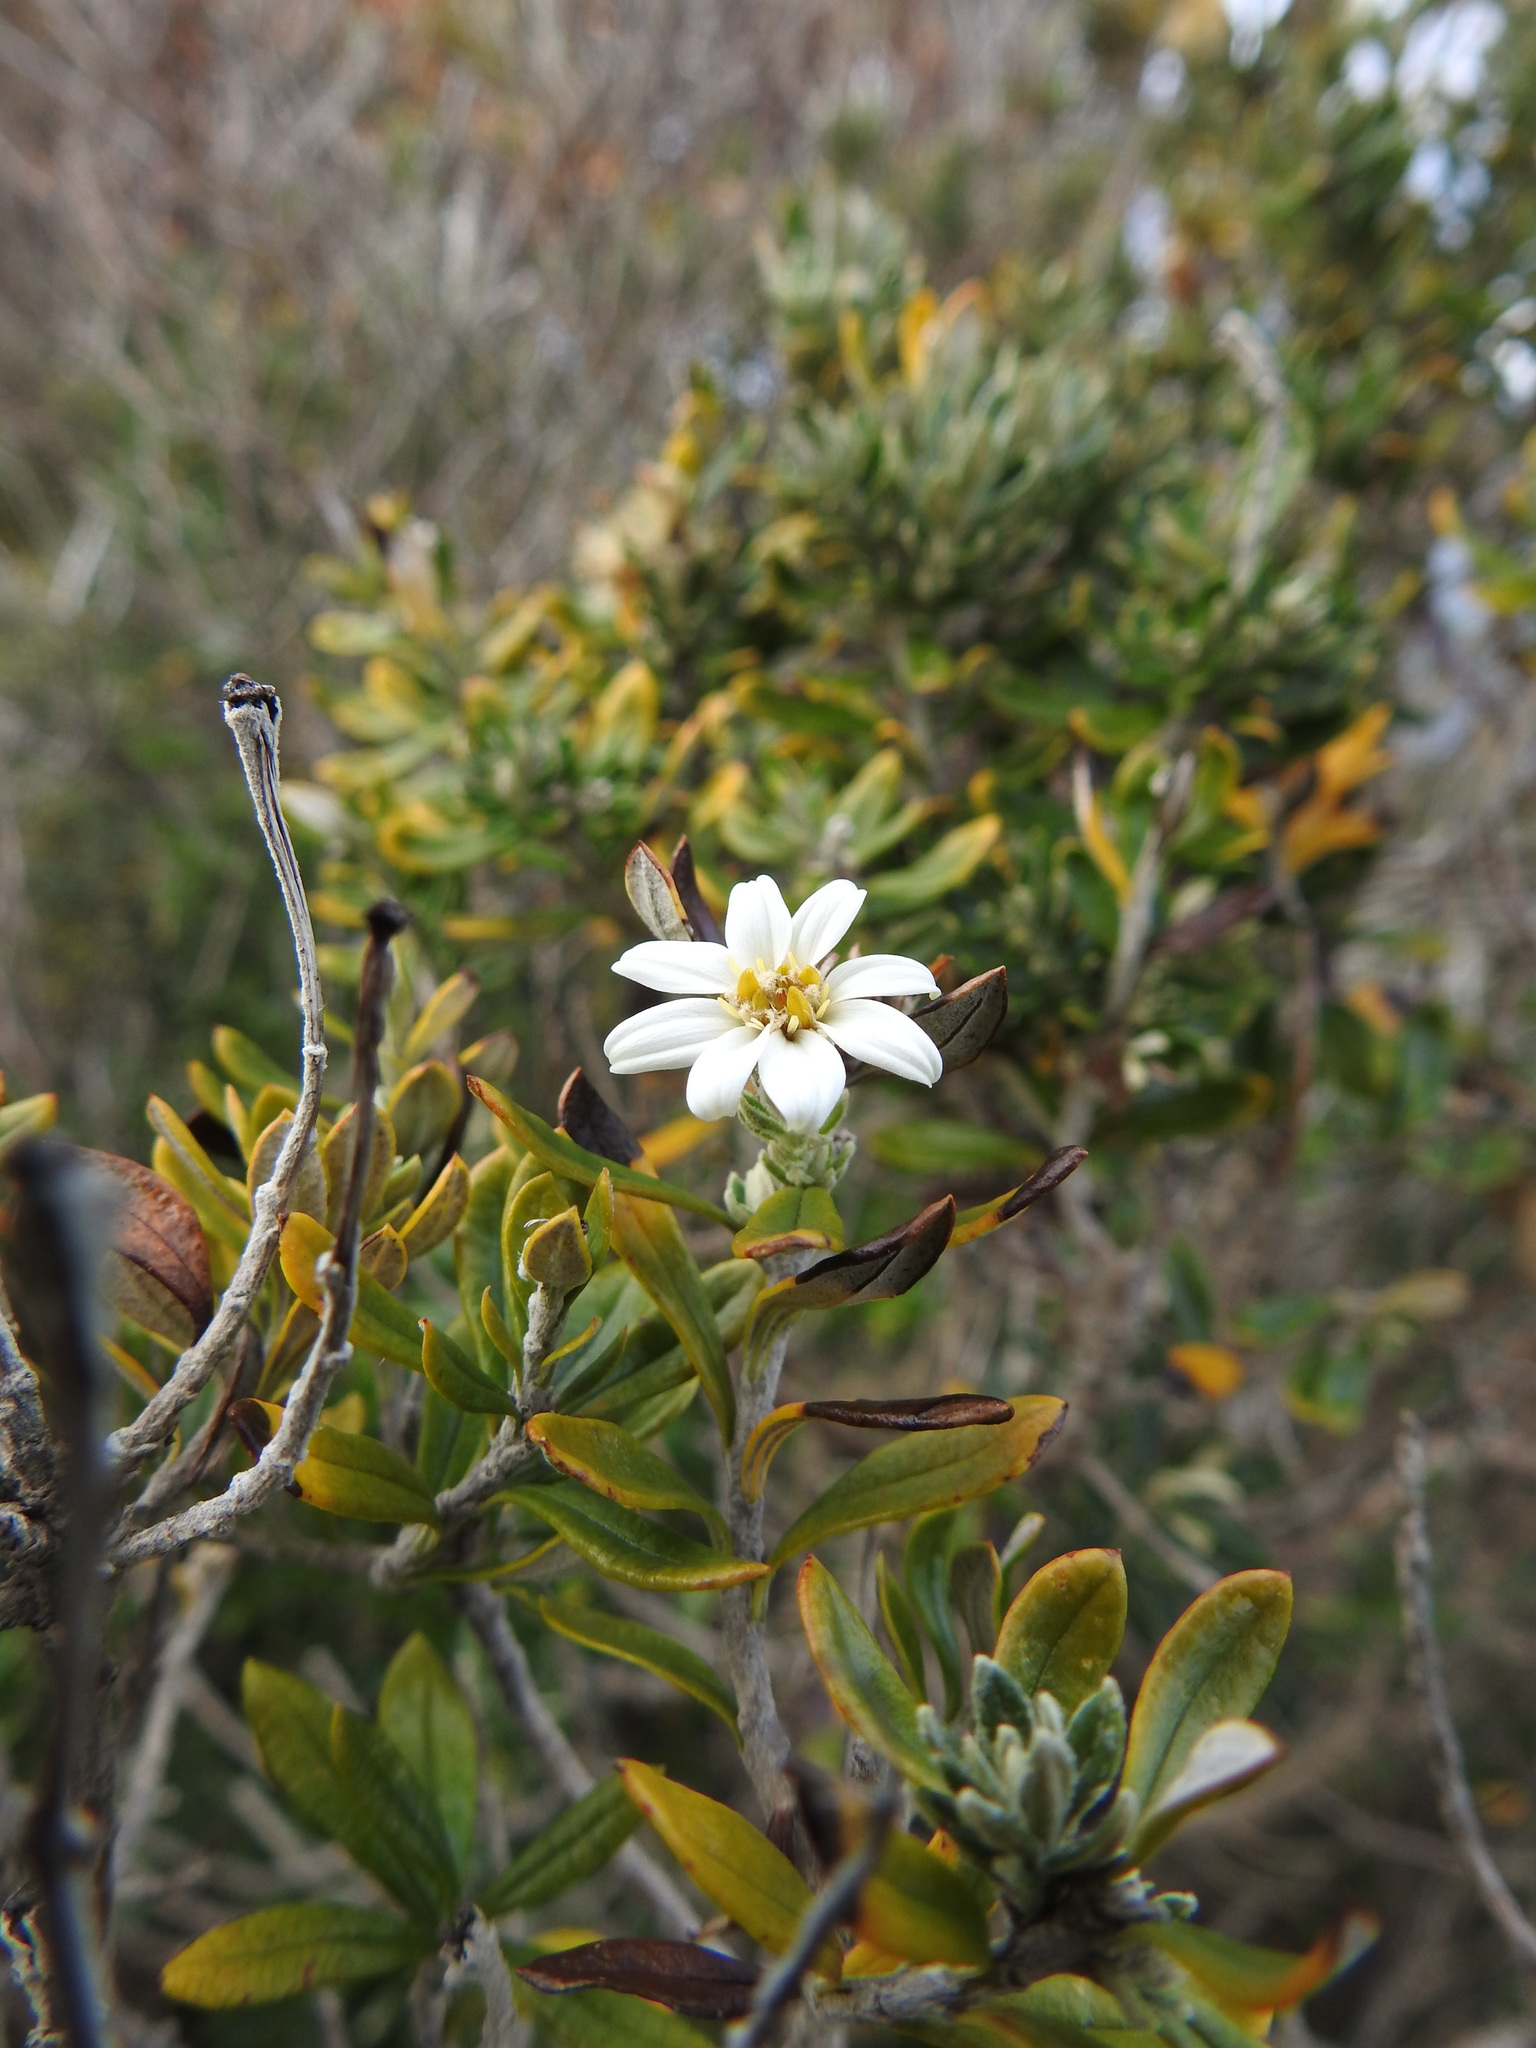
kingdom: Plantae
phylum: Tracheophyta
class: Magnoliopsida
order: Asterales
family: Asteraceae
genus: Chiliotrichum
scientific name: Chiliotrichum diffusum
